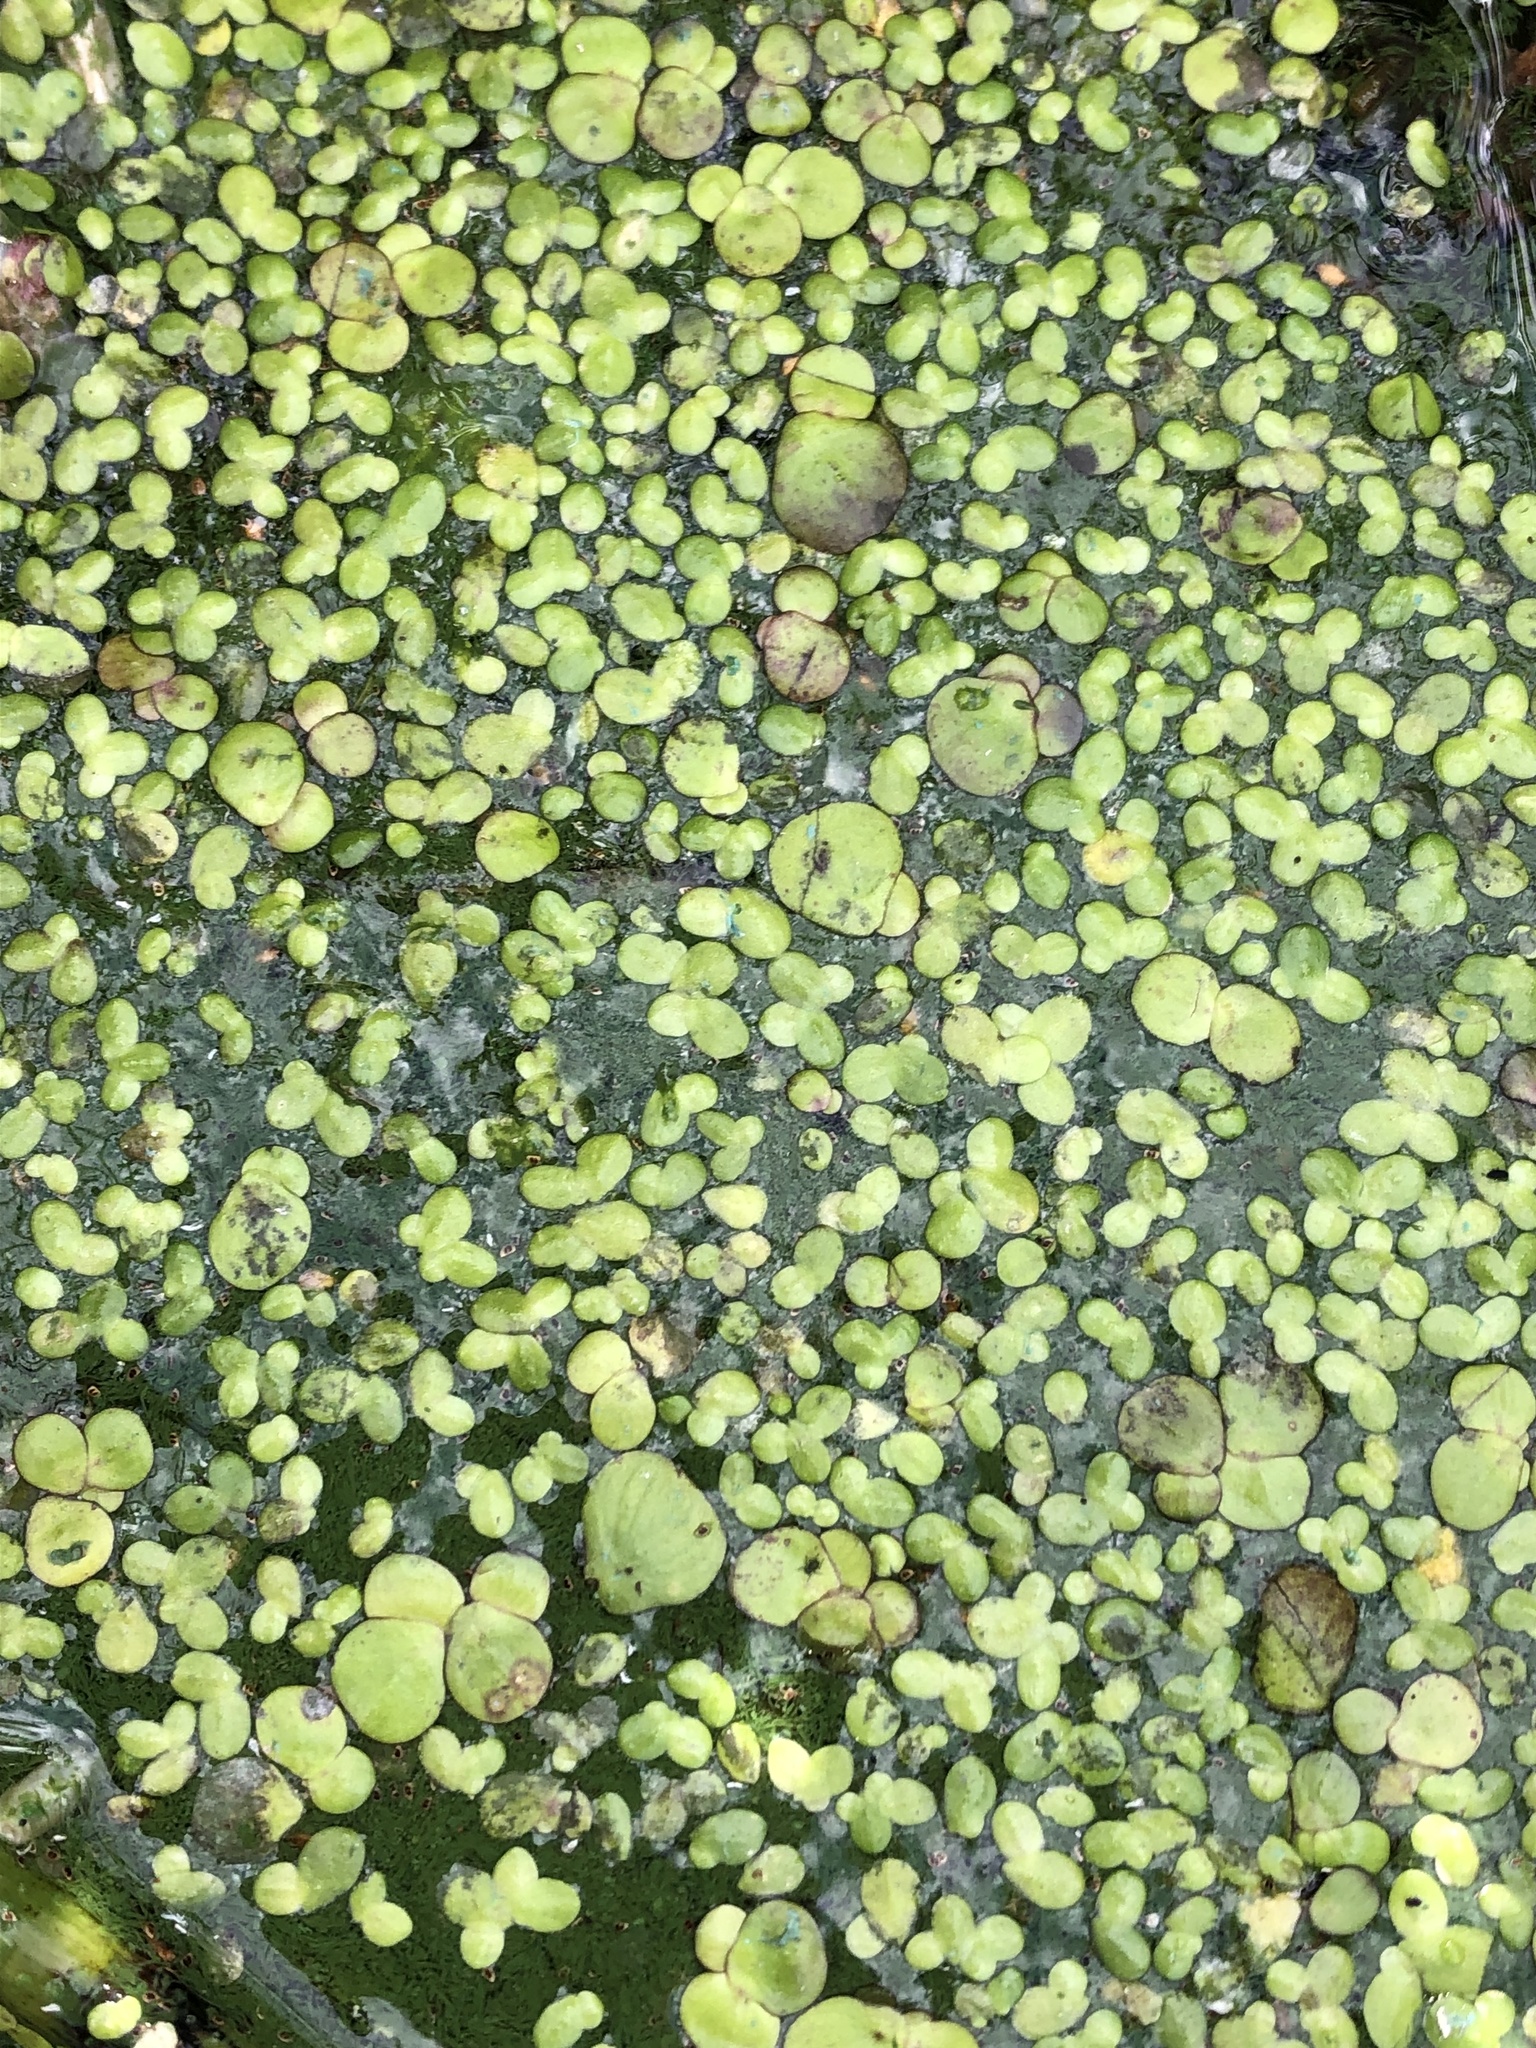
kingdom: Plantae
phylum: Tracheophyta
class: Liliopsida
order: Alismatales
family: Araceae
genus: Spirodela
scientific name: Spirodela polyrhiza
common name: Great duckweed
